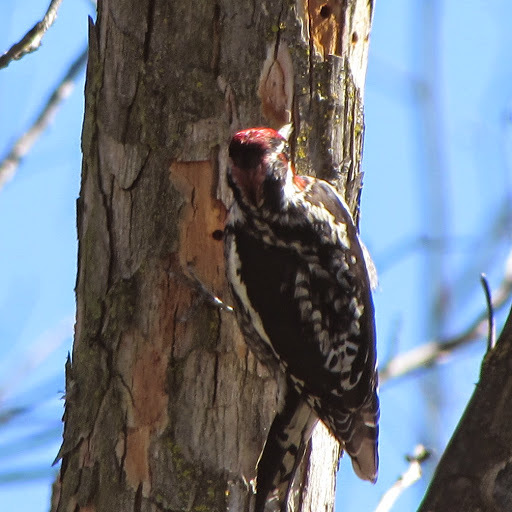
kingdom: Animalia
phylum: Chordata
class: Aves
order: Piciformes
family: Picidae
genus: Sphyrapicus
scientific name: Sphyrapicus nuchalis
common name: Red-naped sapsucker
